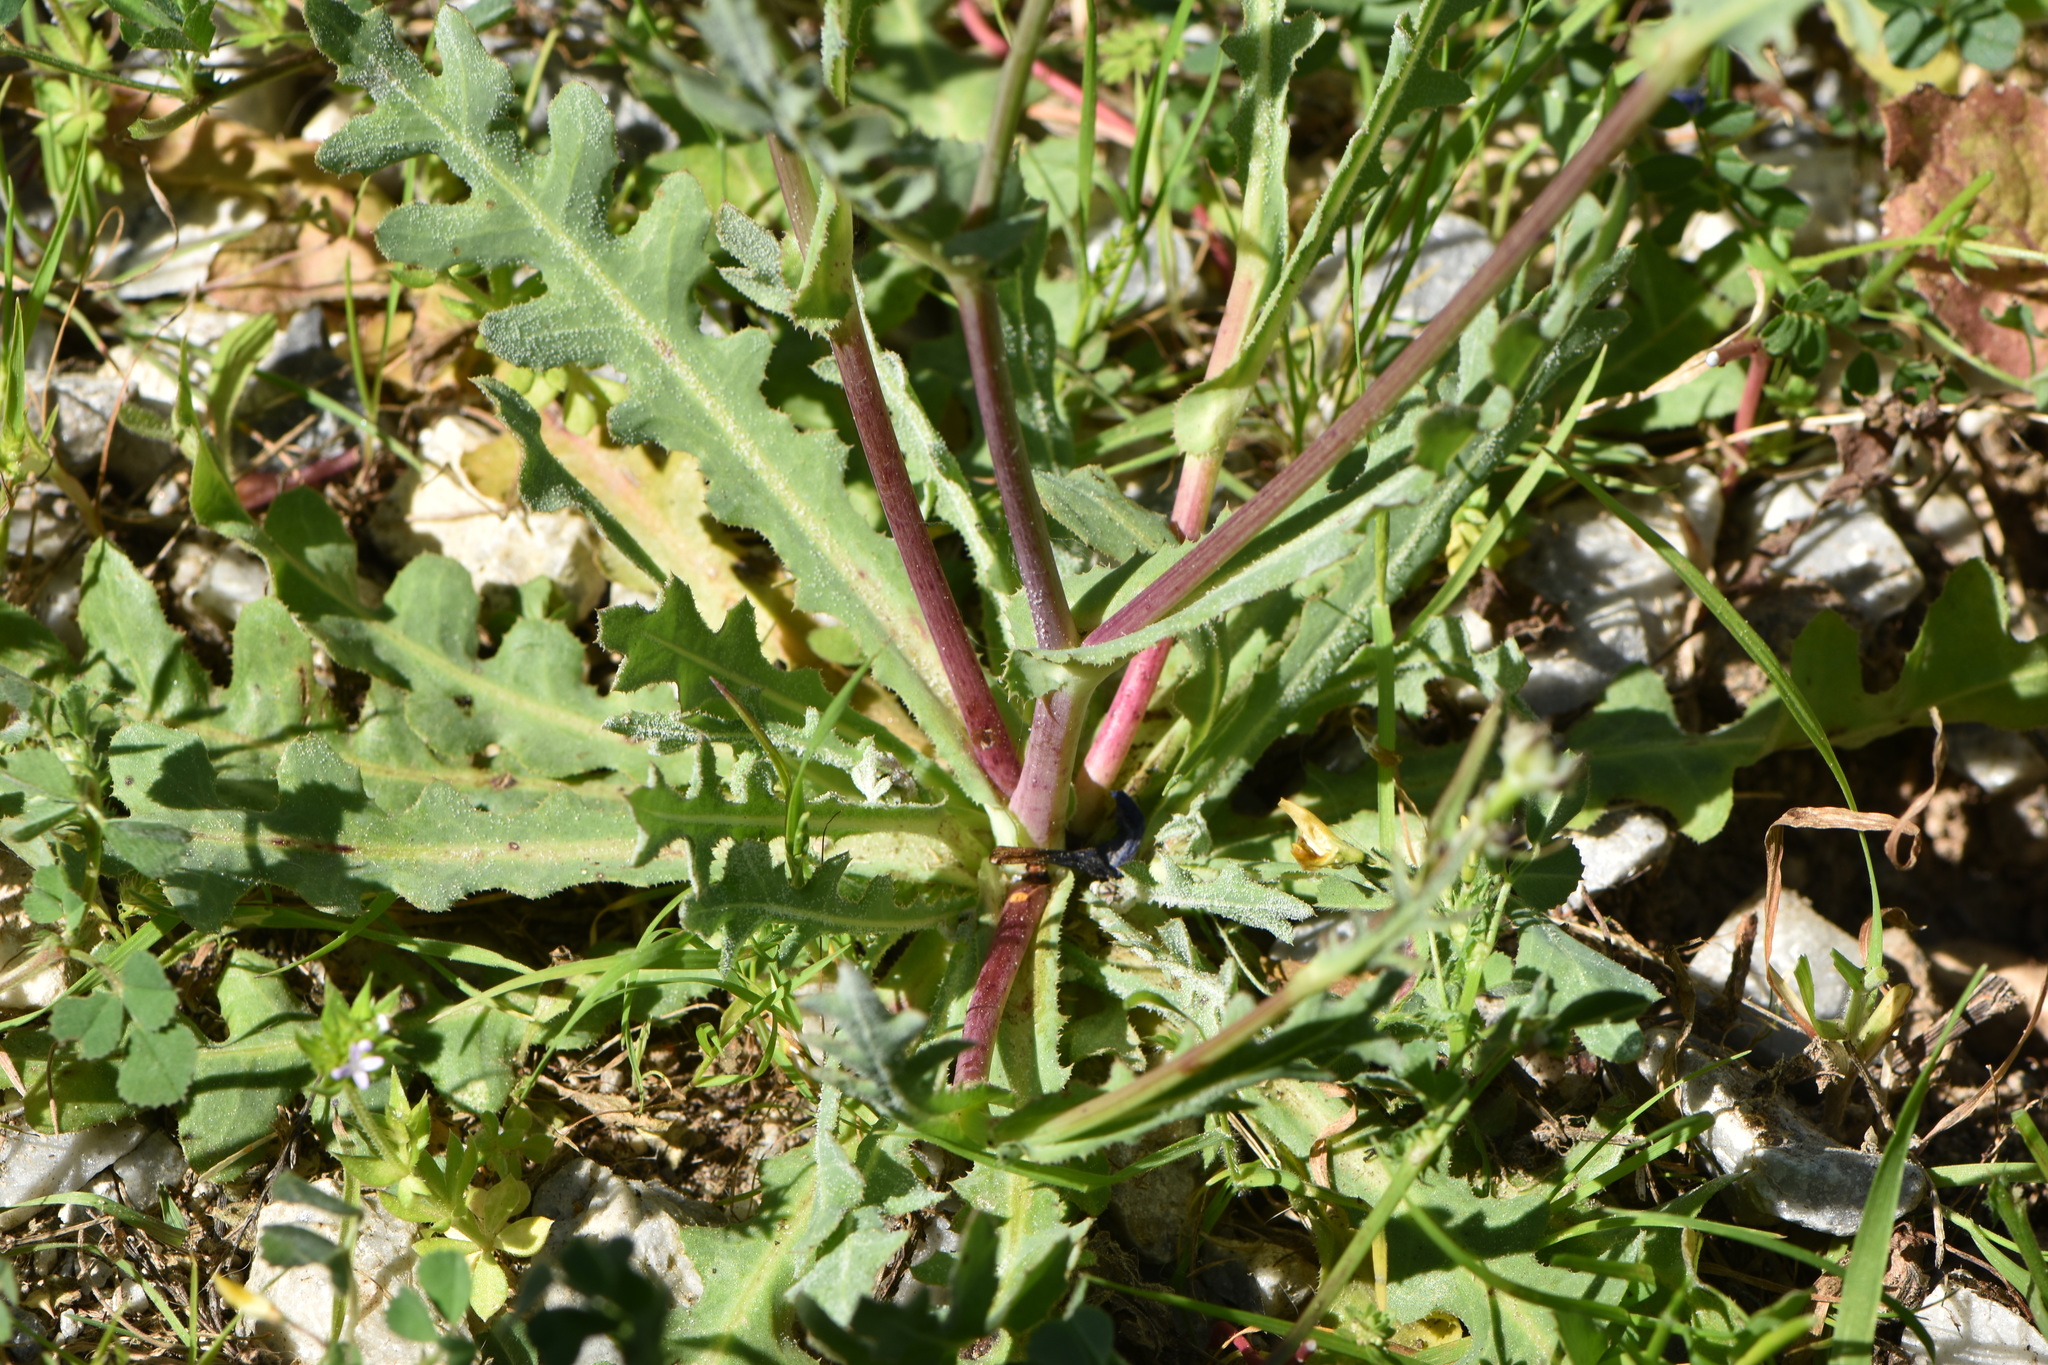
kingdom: Plantae
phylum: Tracheophyta
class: Magnoliopsida
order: Asterales
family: Asteraceae
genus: Reichardia
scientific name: Reichardia tingitana
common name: Reichardia
